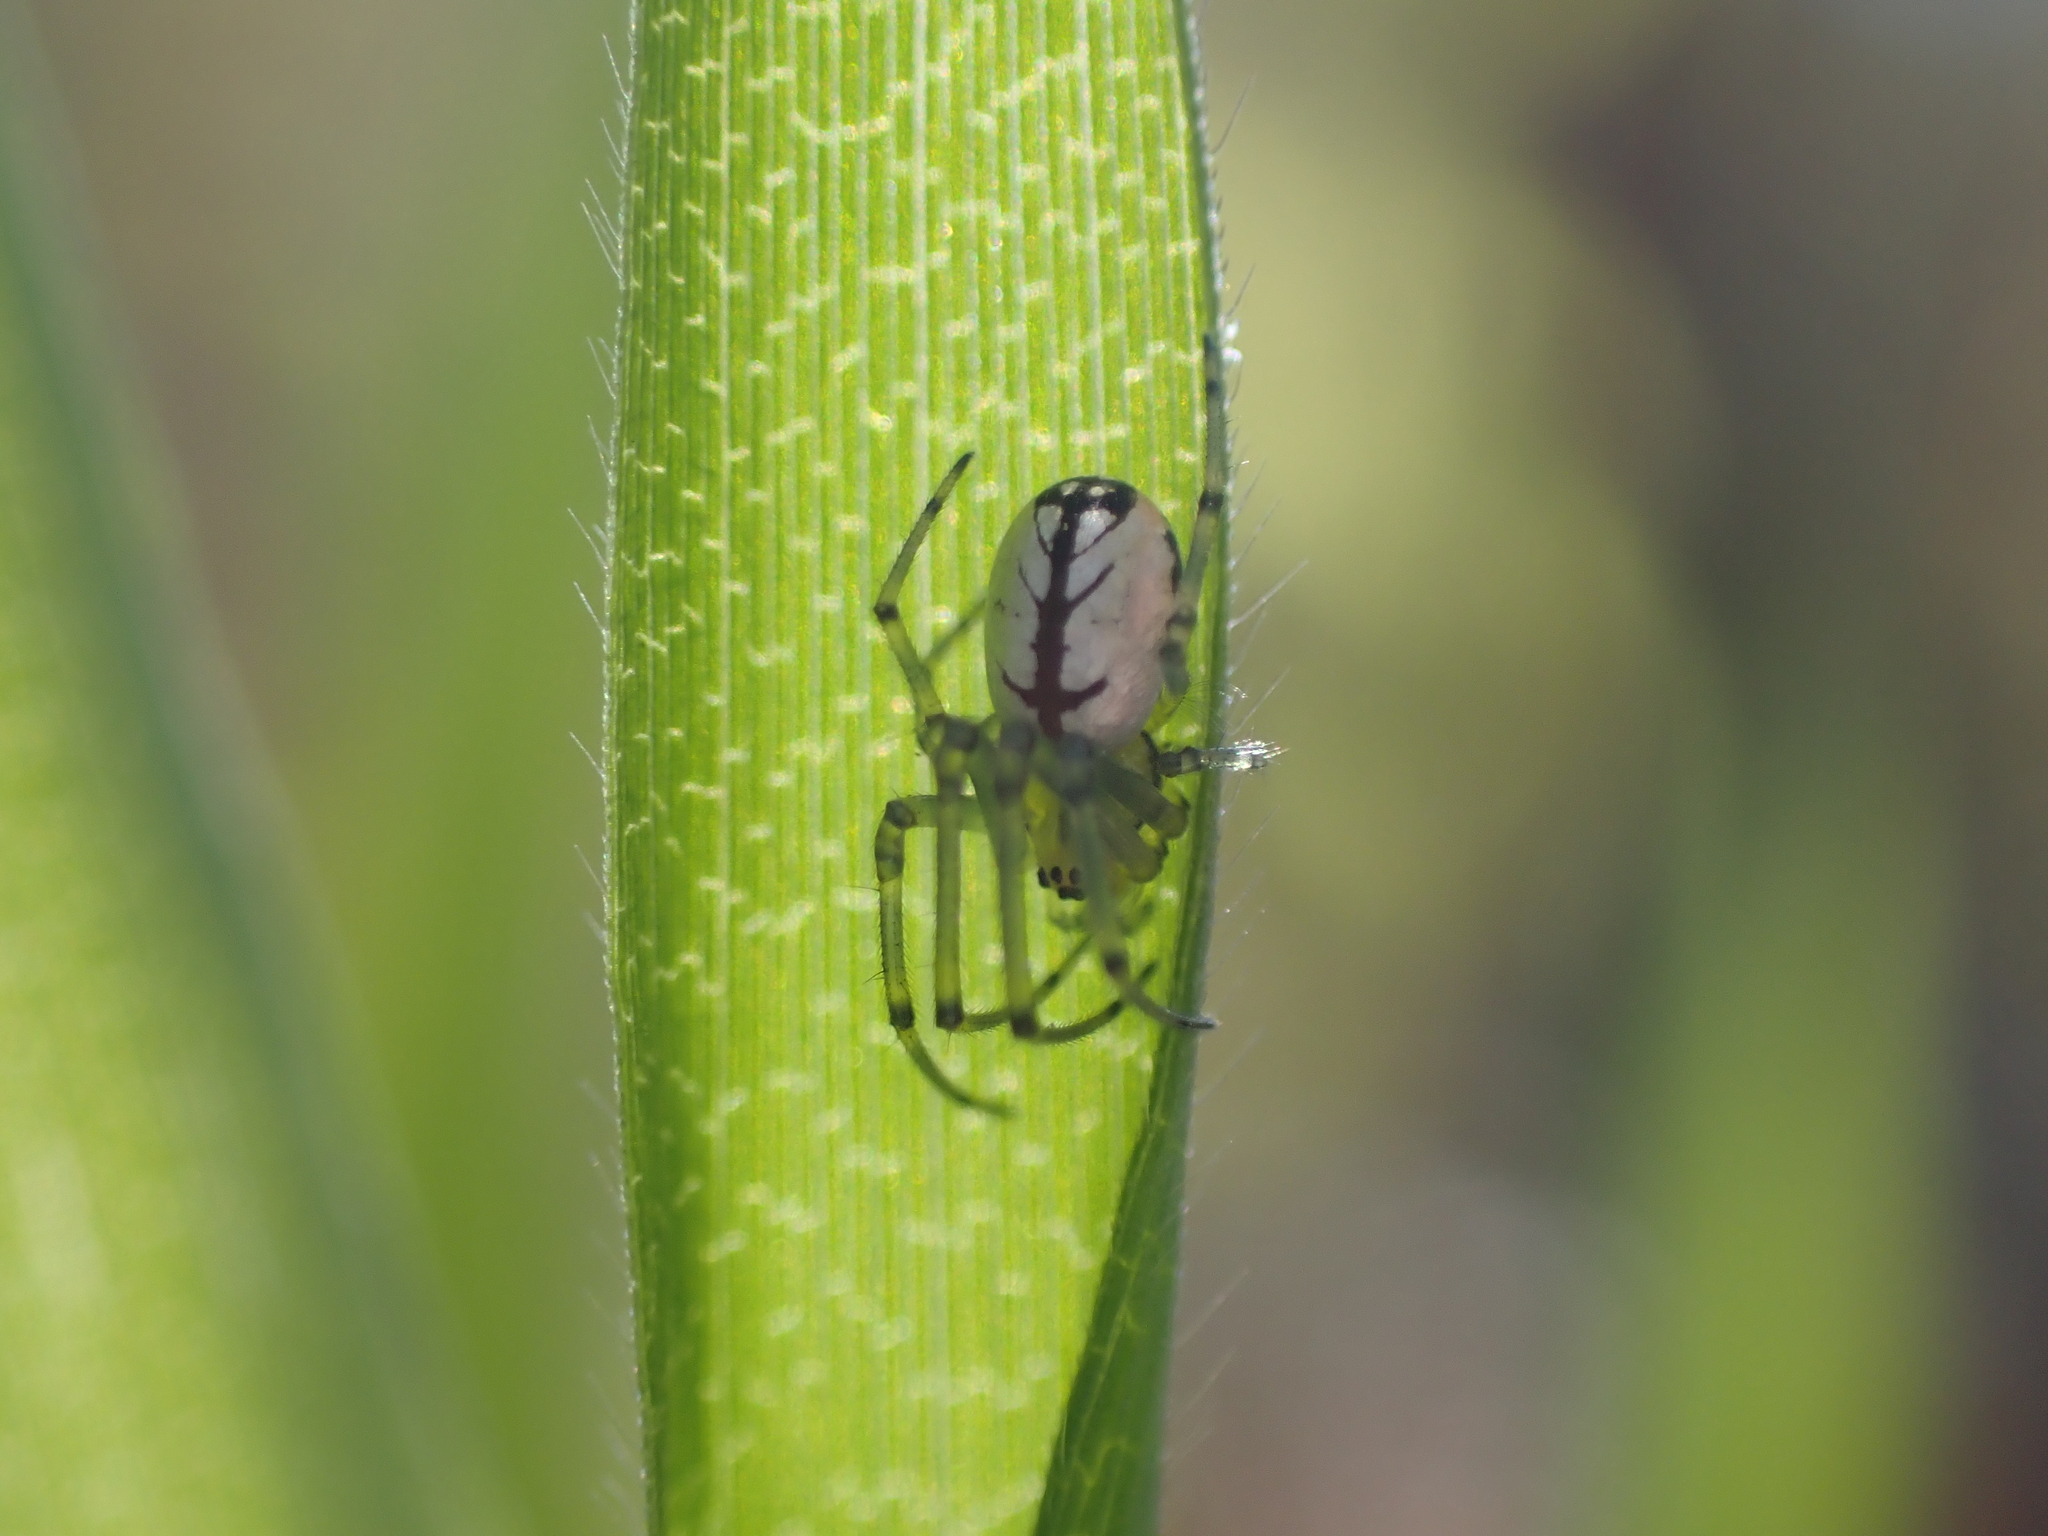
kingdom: Animalia
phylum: Arthropoda
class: Arachnida
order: Araneae
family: Tetragnathidae
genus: Leucauge
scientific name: Leucauge venusta
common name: Longjawed orb weavers
